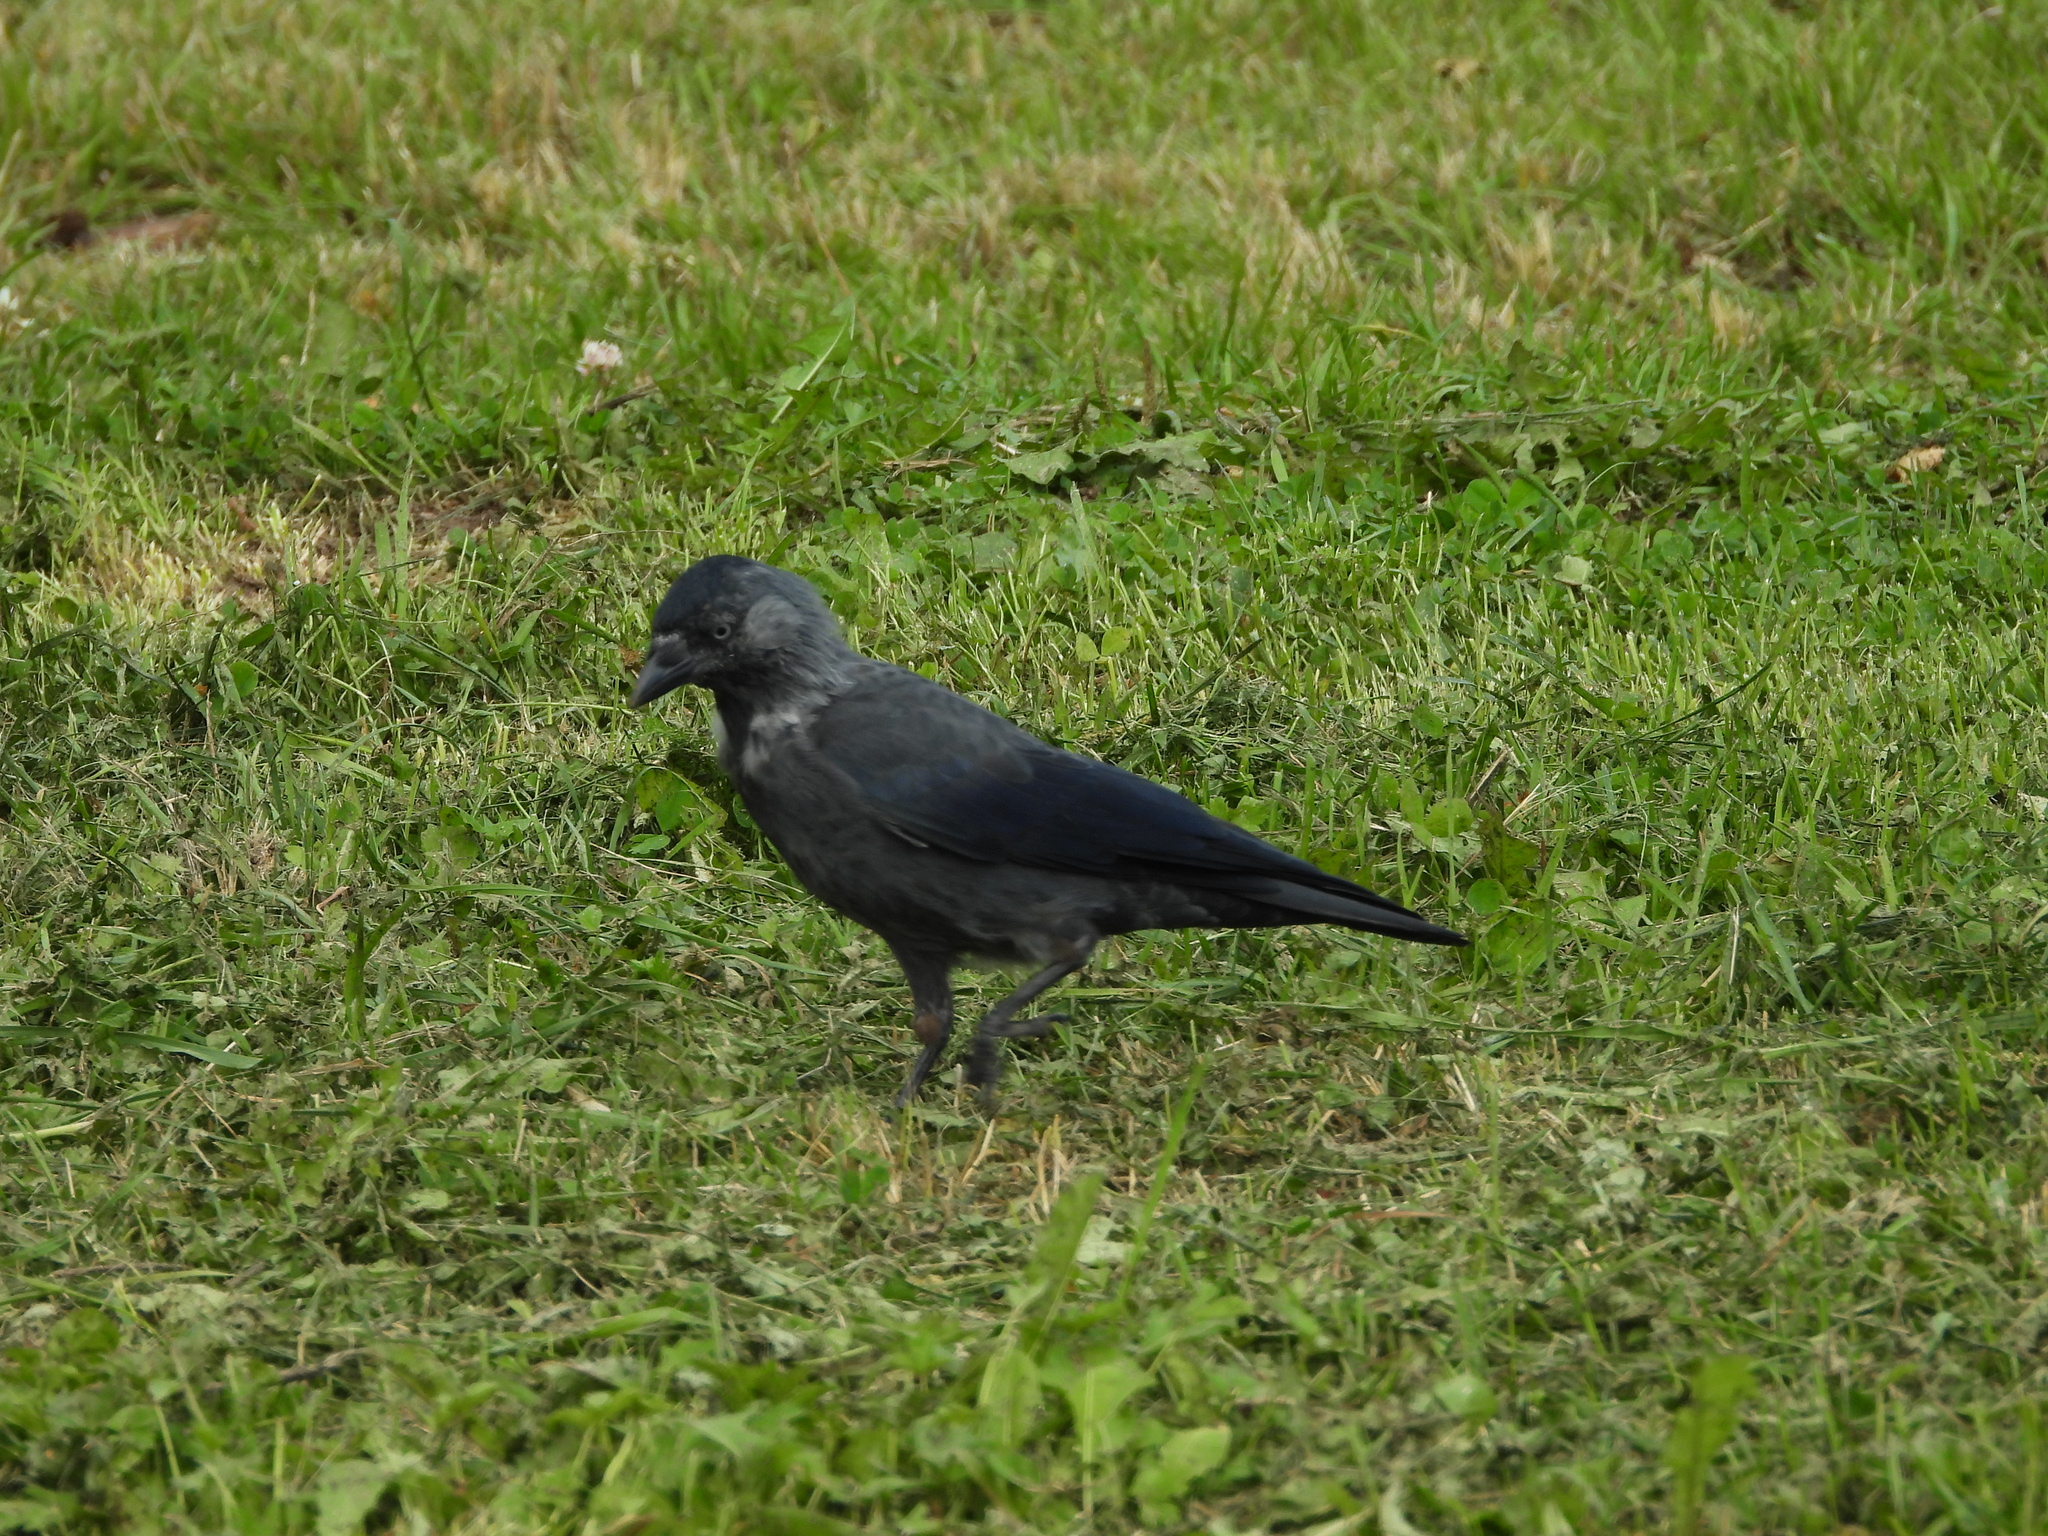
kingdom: Animalia
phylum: Chordata
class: Aves
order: Passeriformes
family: Corvidae
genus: Coloeus
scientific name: Coloeus monedula
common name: Western jackdaw
